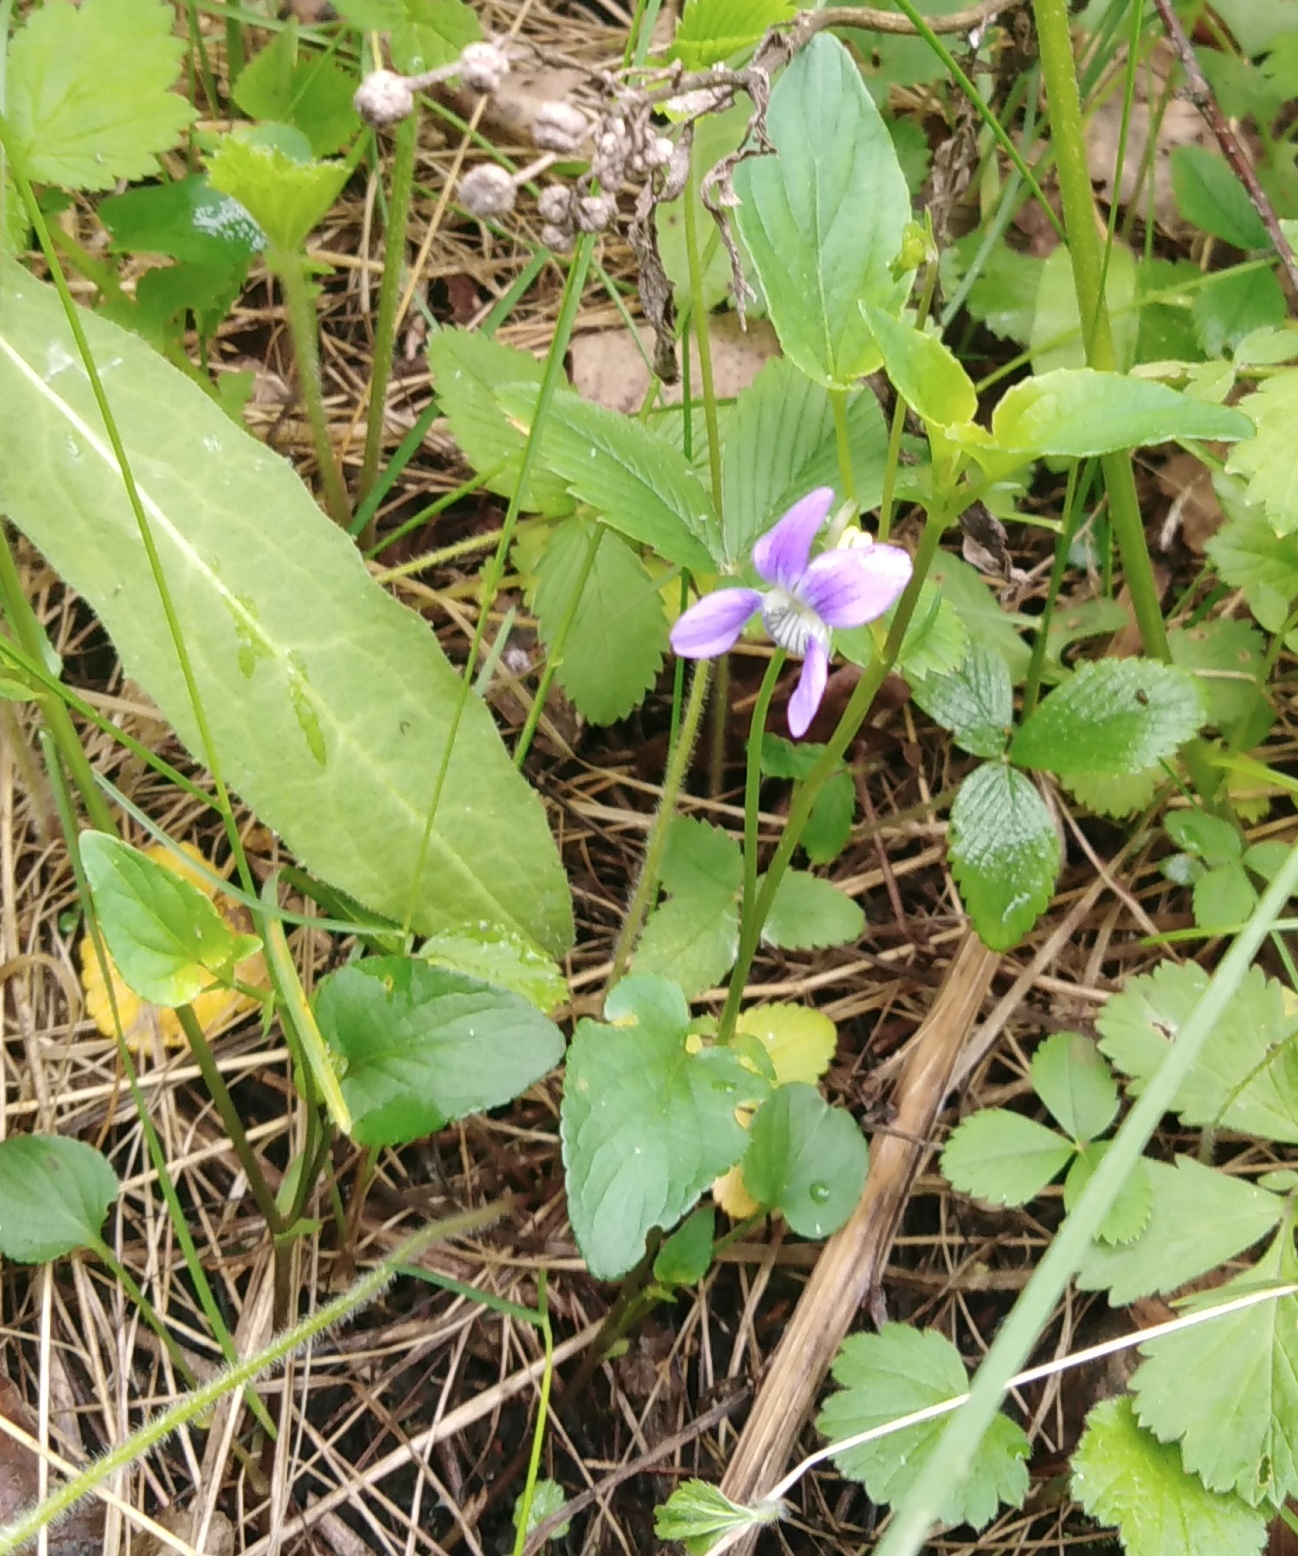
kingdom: Plantae
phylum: Tracheophyta
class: Magnoliopsida
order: Malpighiales
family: Violaceae
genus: Viola
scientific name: Viola
